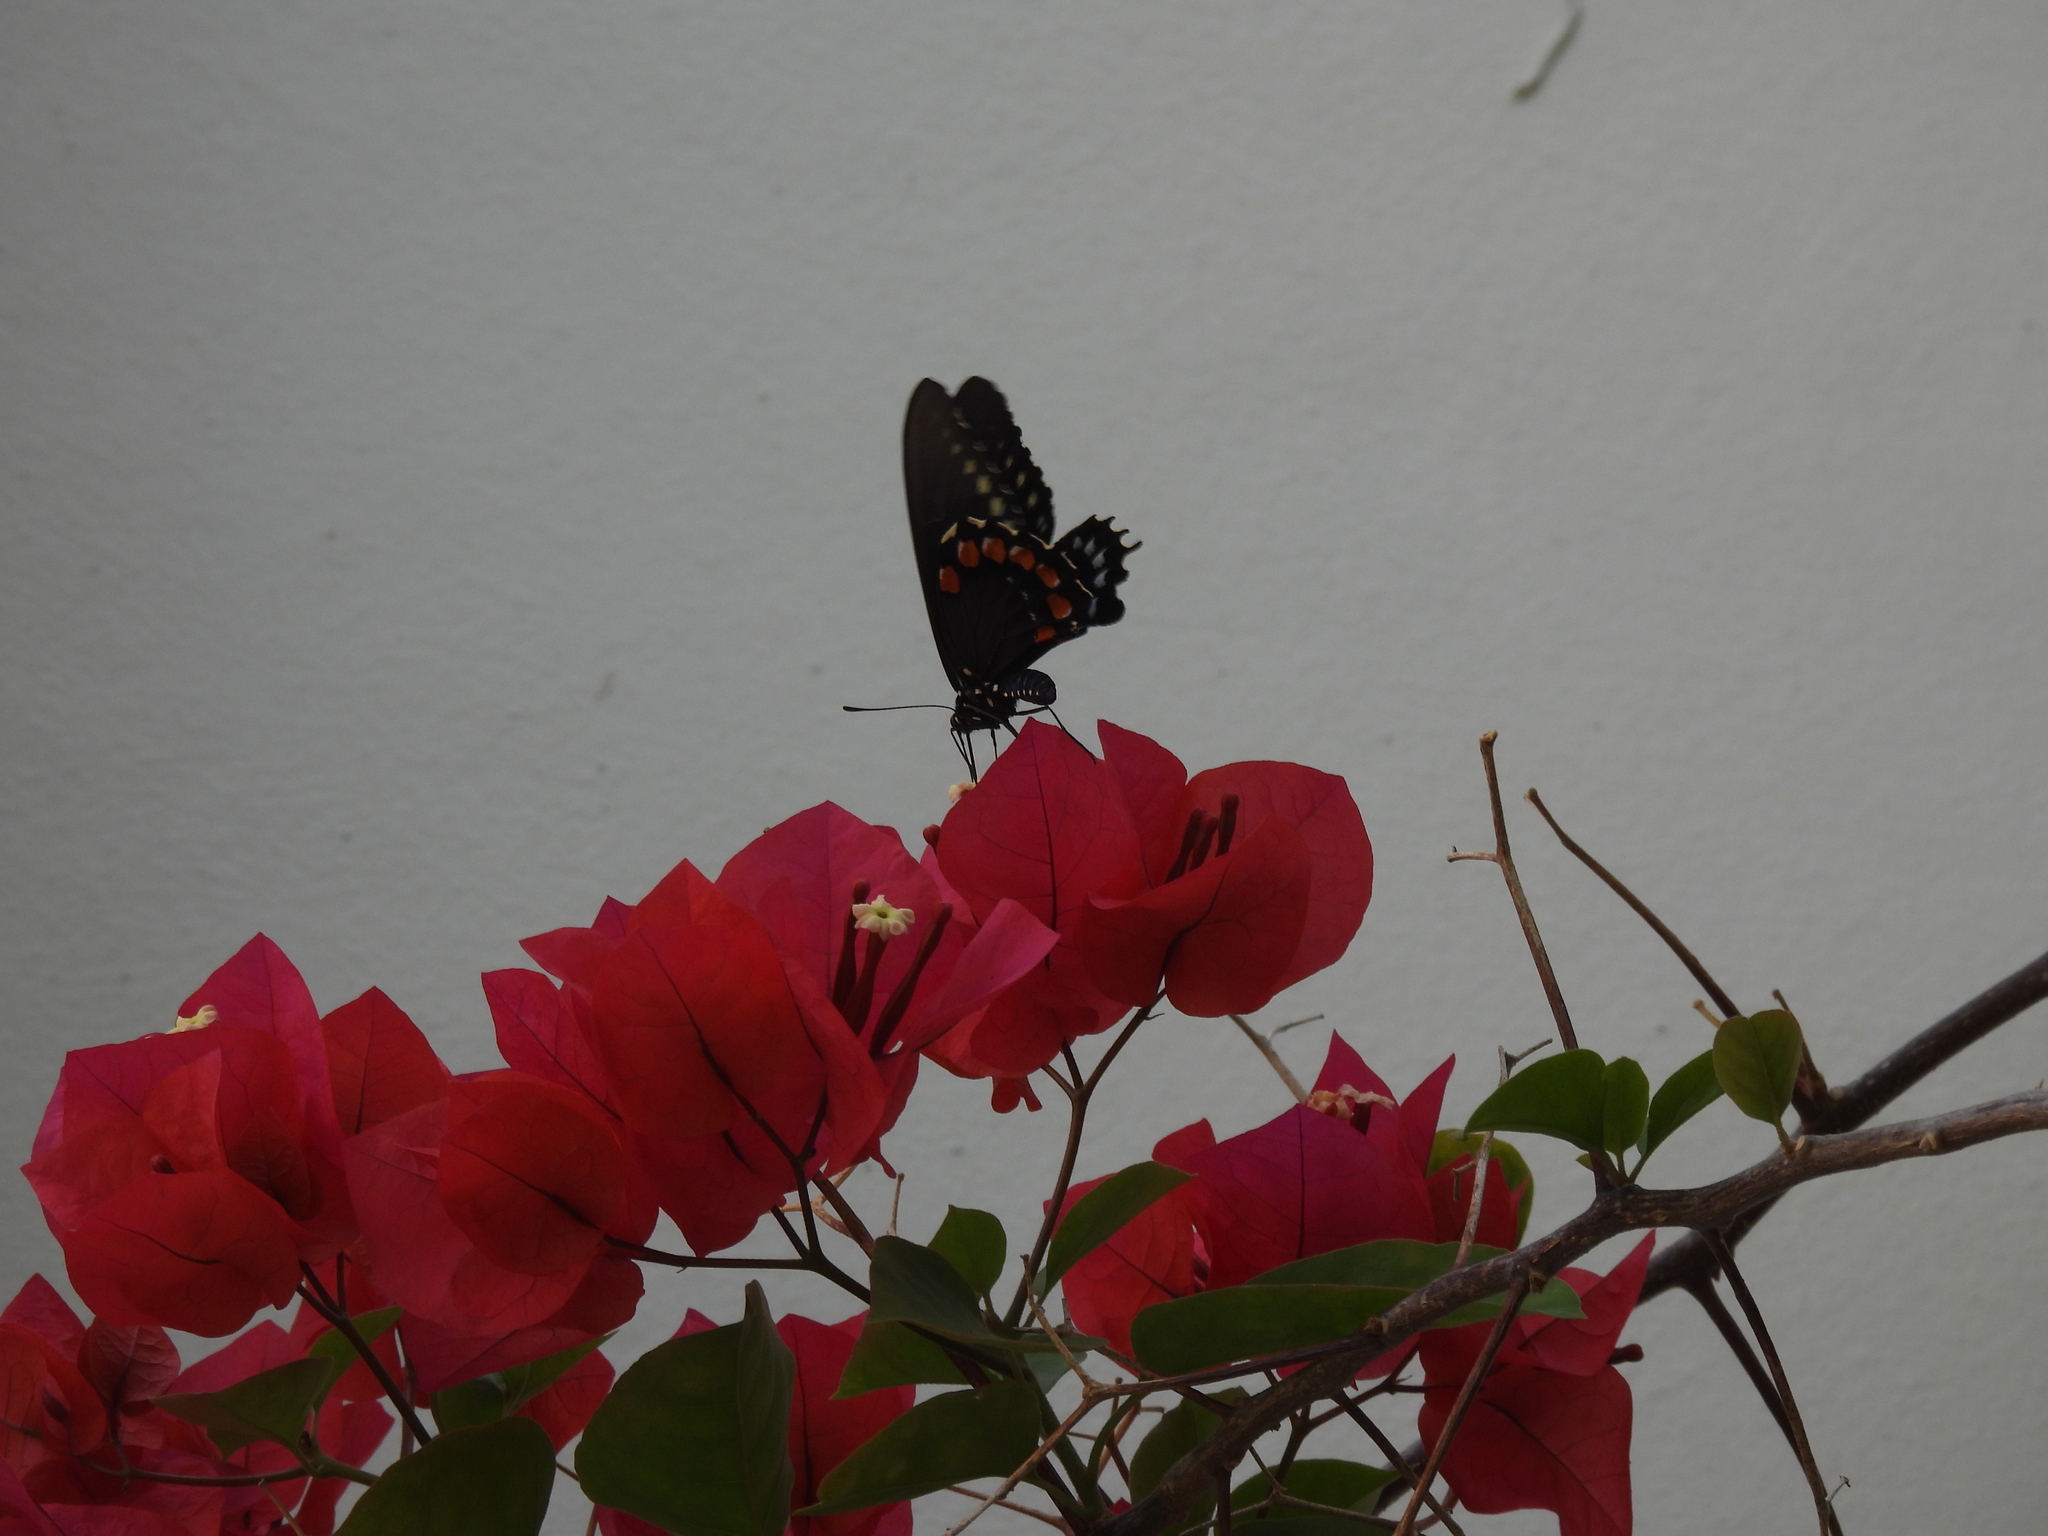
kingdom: Animalia
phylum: Arthropoda
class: Insecta
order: Lepidoptera
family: Papilionidae
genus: Battus
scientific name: Battus philenor
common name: Pipevine swallowtail
